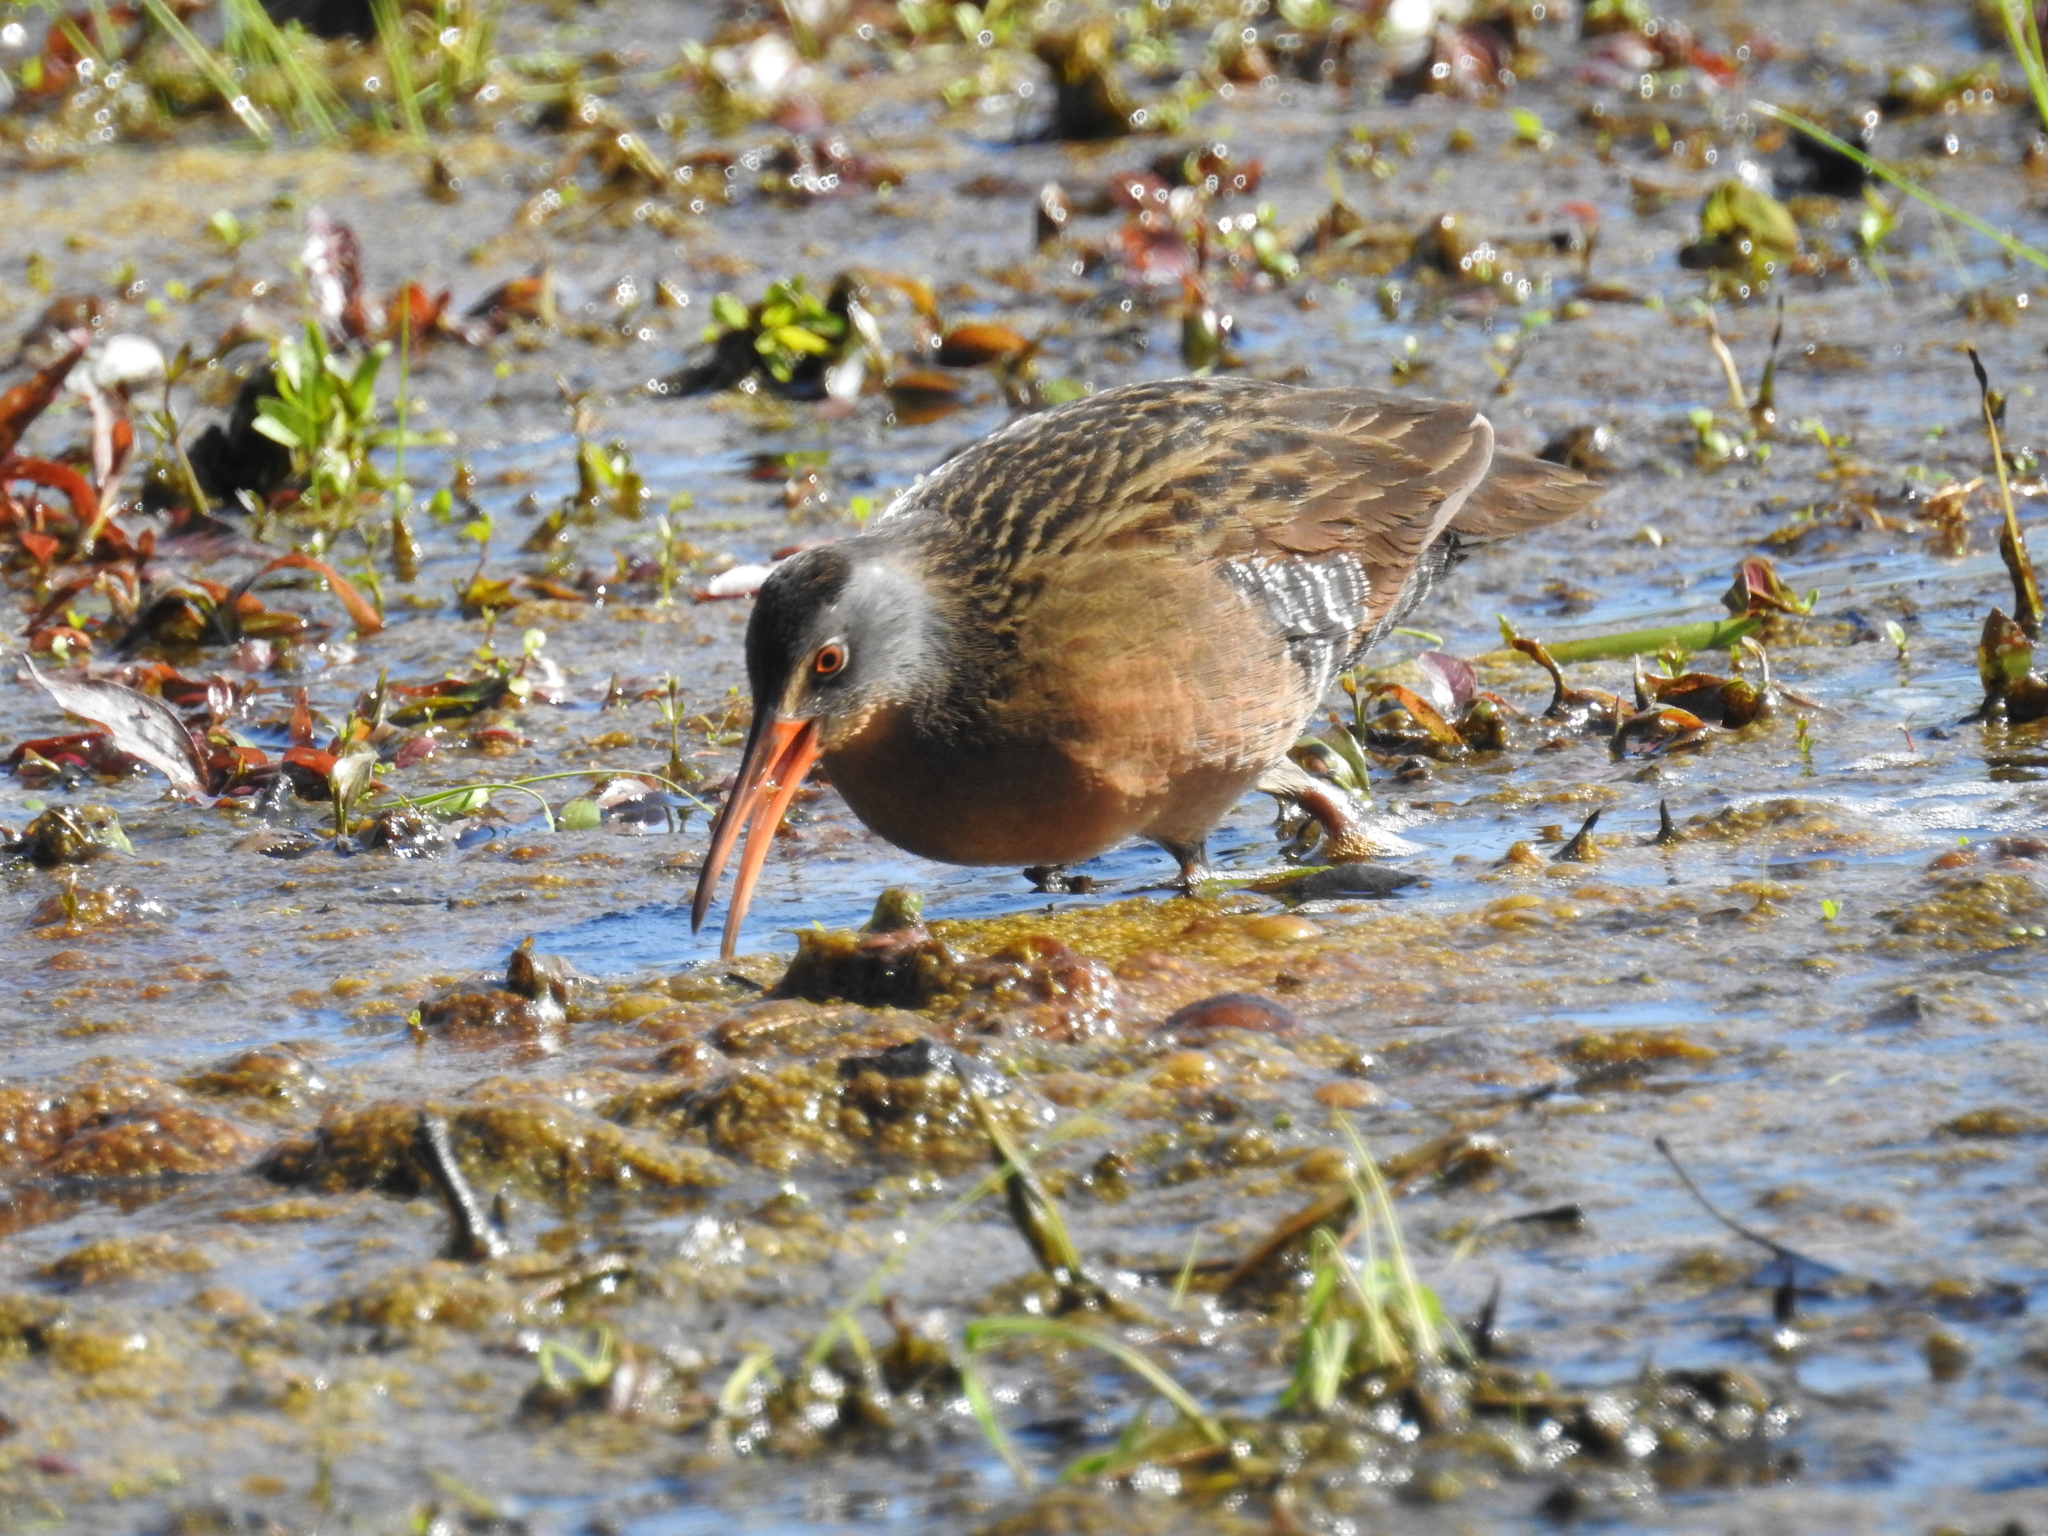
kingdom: Animalia
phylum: Chordata
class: Aves
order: Gruiformes
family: Rallidae
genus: Rallus
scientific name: Rallus limicola
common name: Virginia rail
